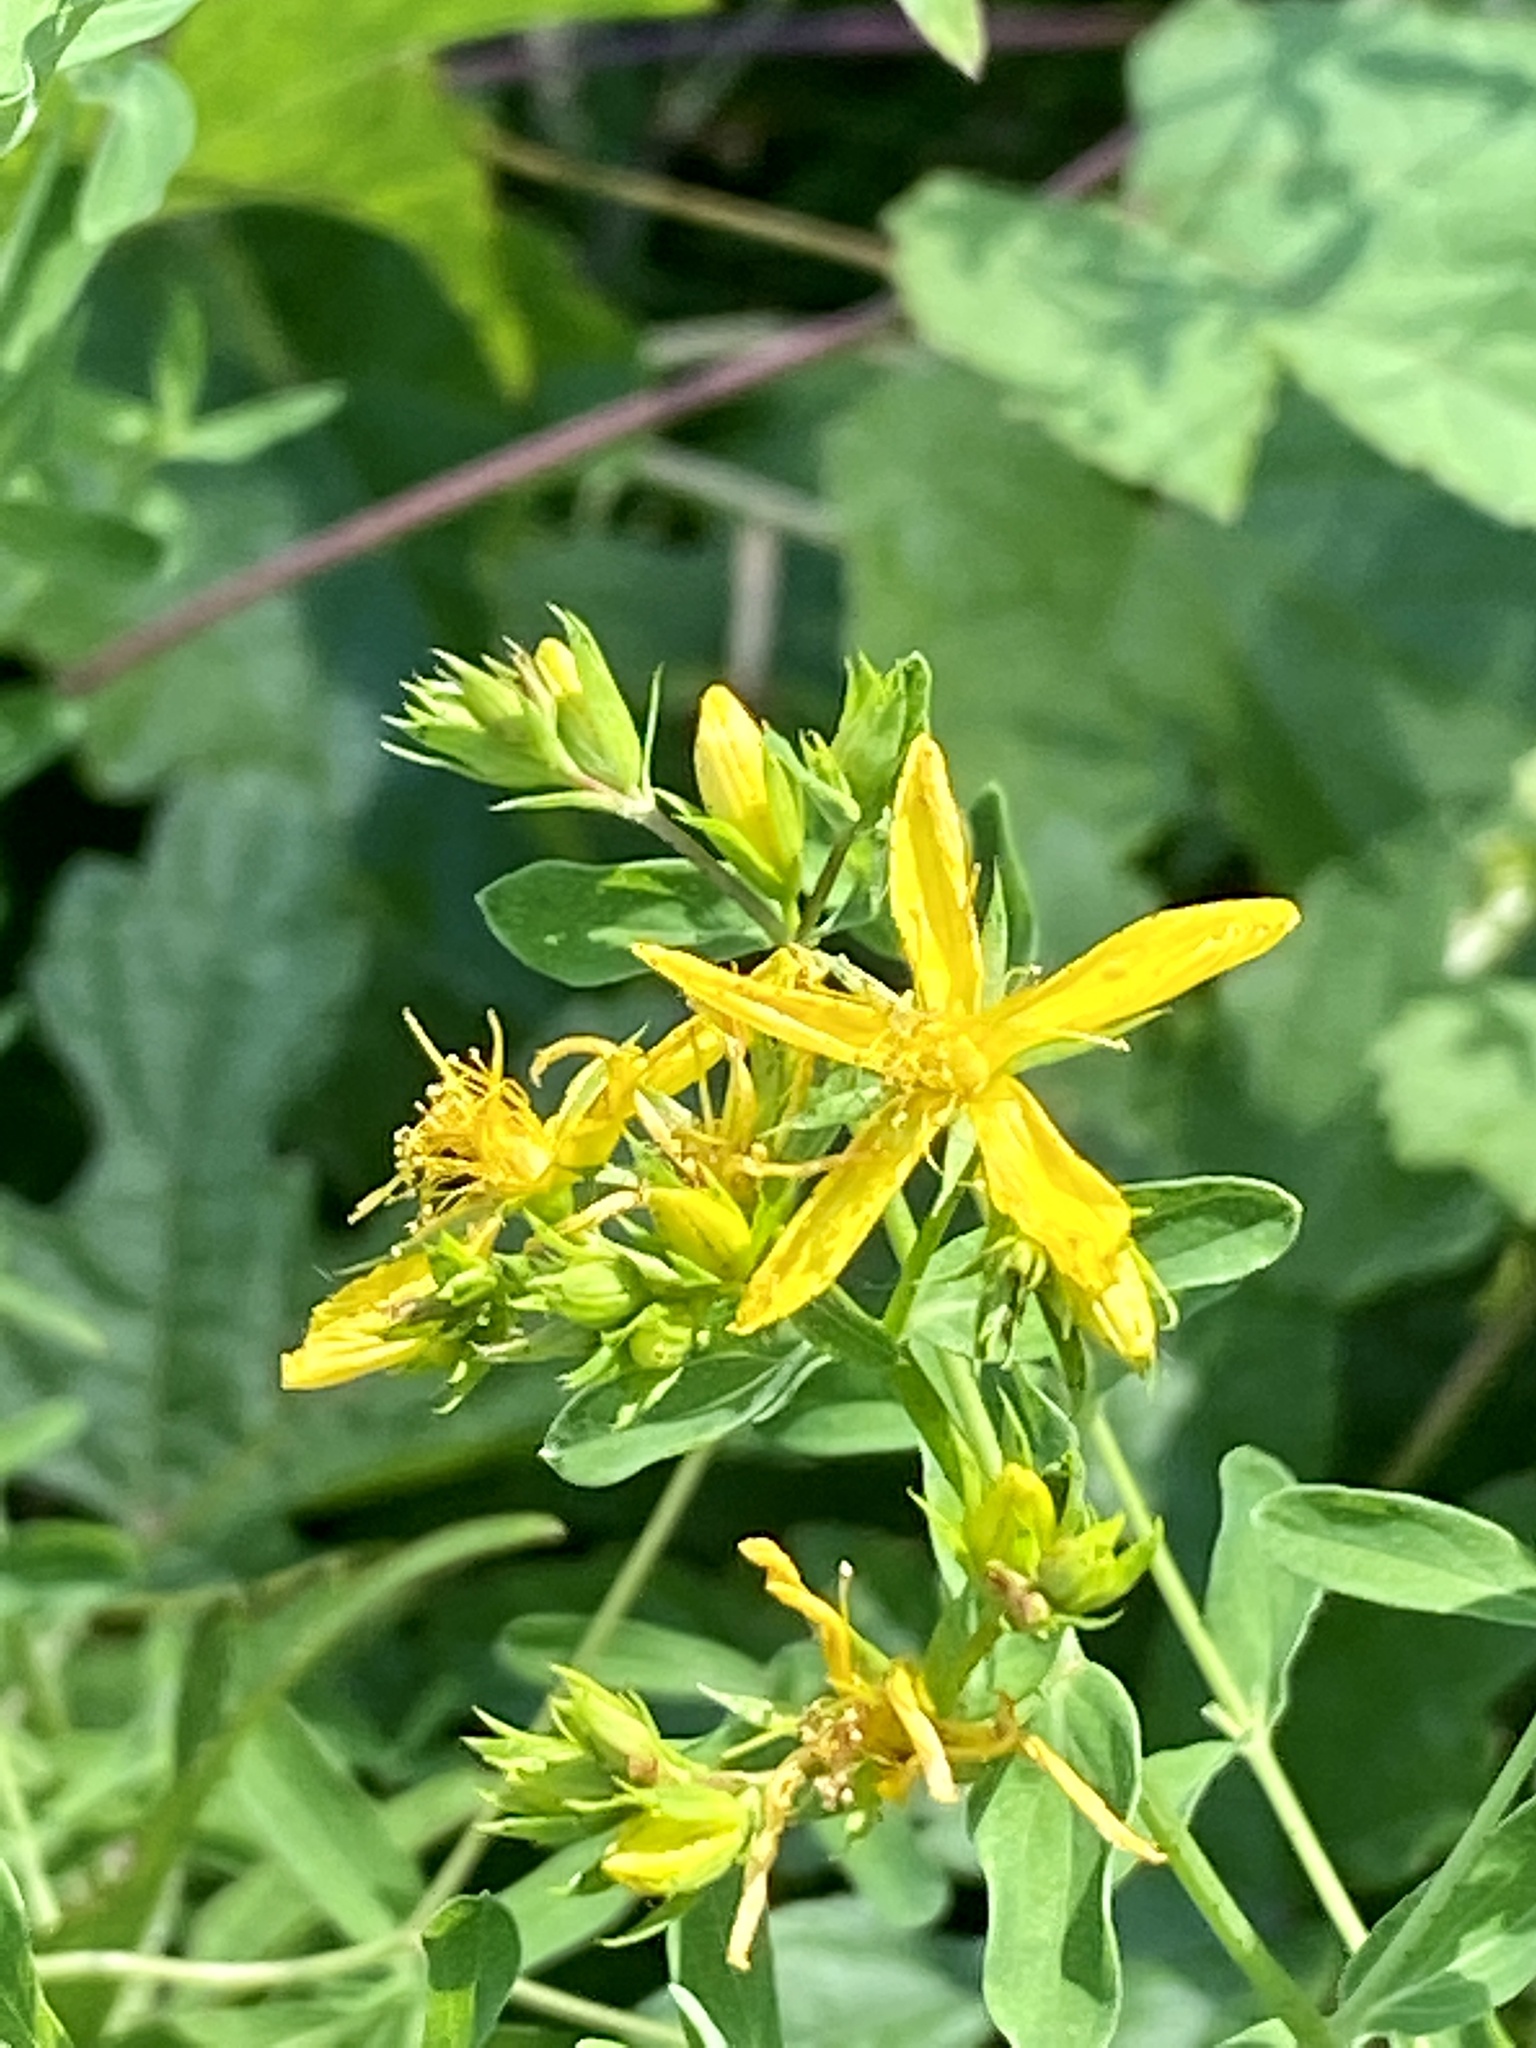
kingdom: Plantae
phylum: Tracheophyta
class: Magnoliopsida
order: Malpighiales
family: Hypericaceae
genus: Hypericum
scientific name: Hypericum perforatum
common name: Common st. johnswort
